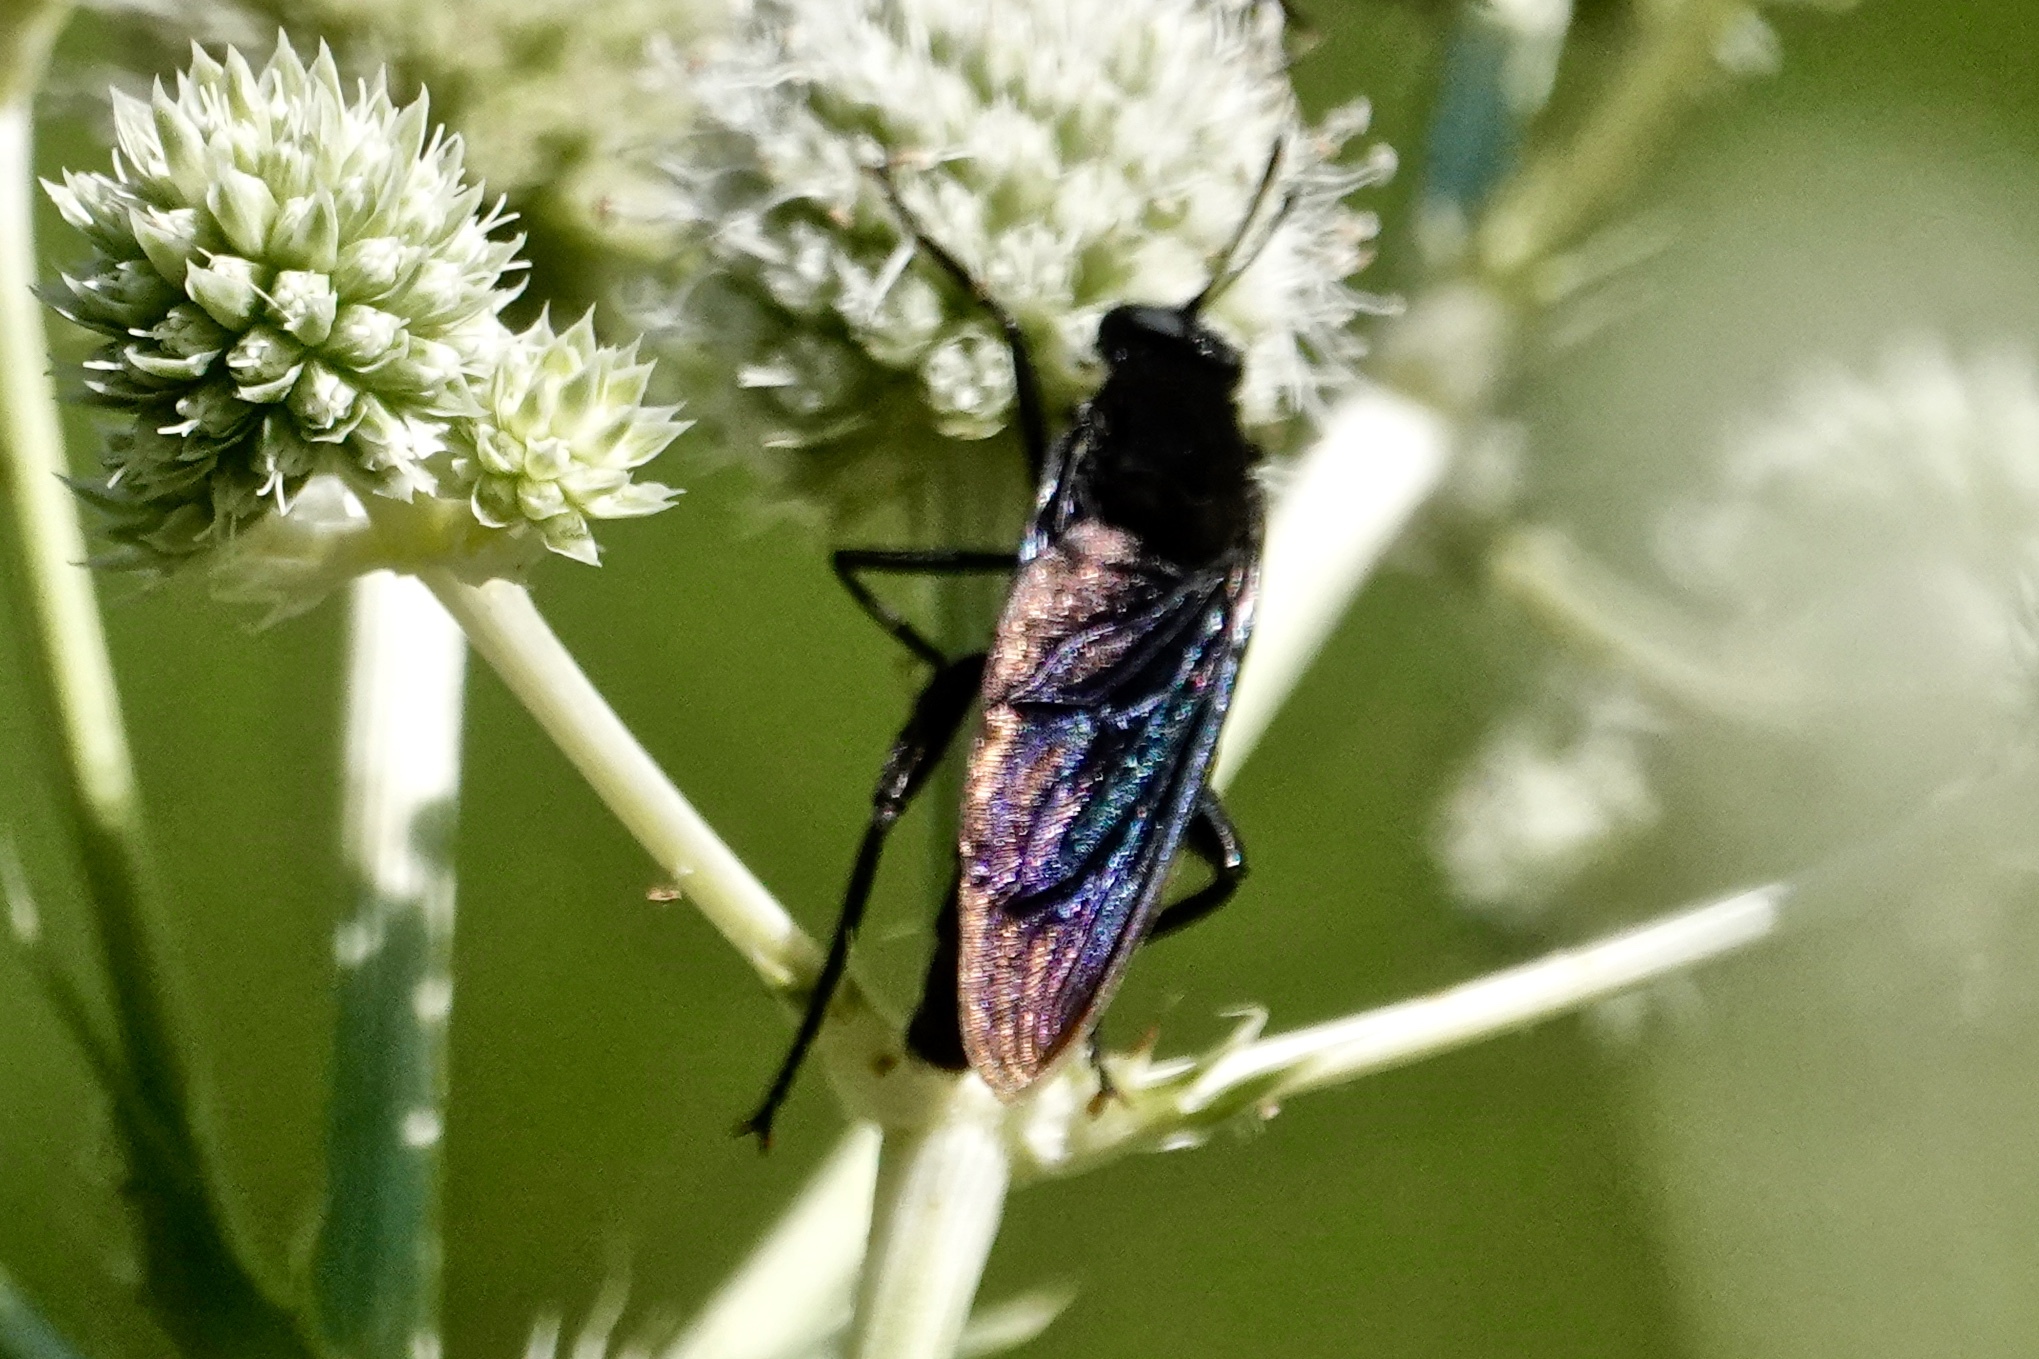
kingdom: Animalia
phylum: Arthropoda
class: Insecta
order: Diptera
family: Mydidae
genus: Mydas
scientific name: Mydas clavatus
